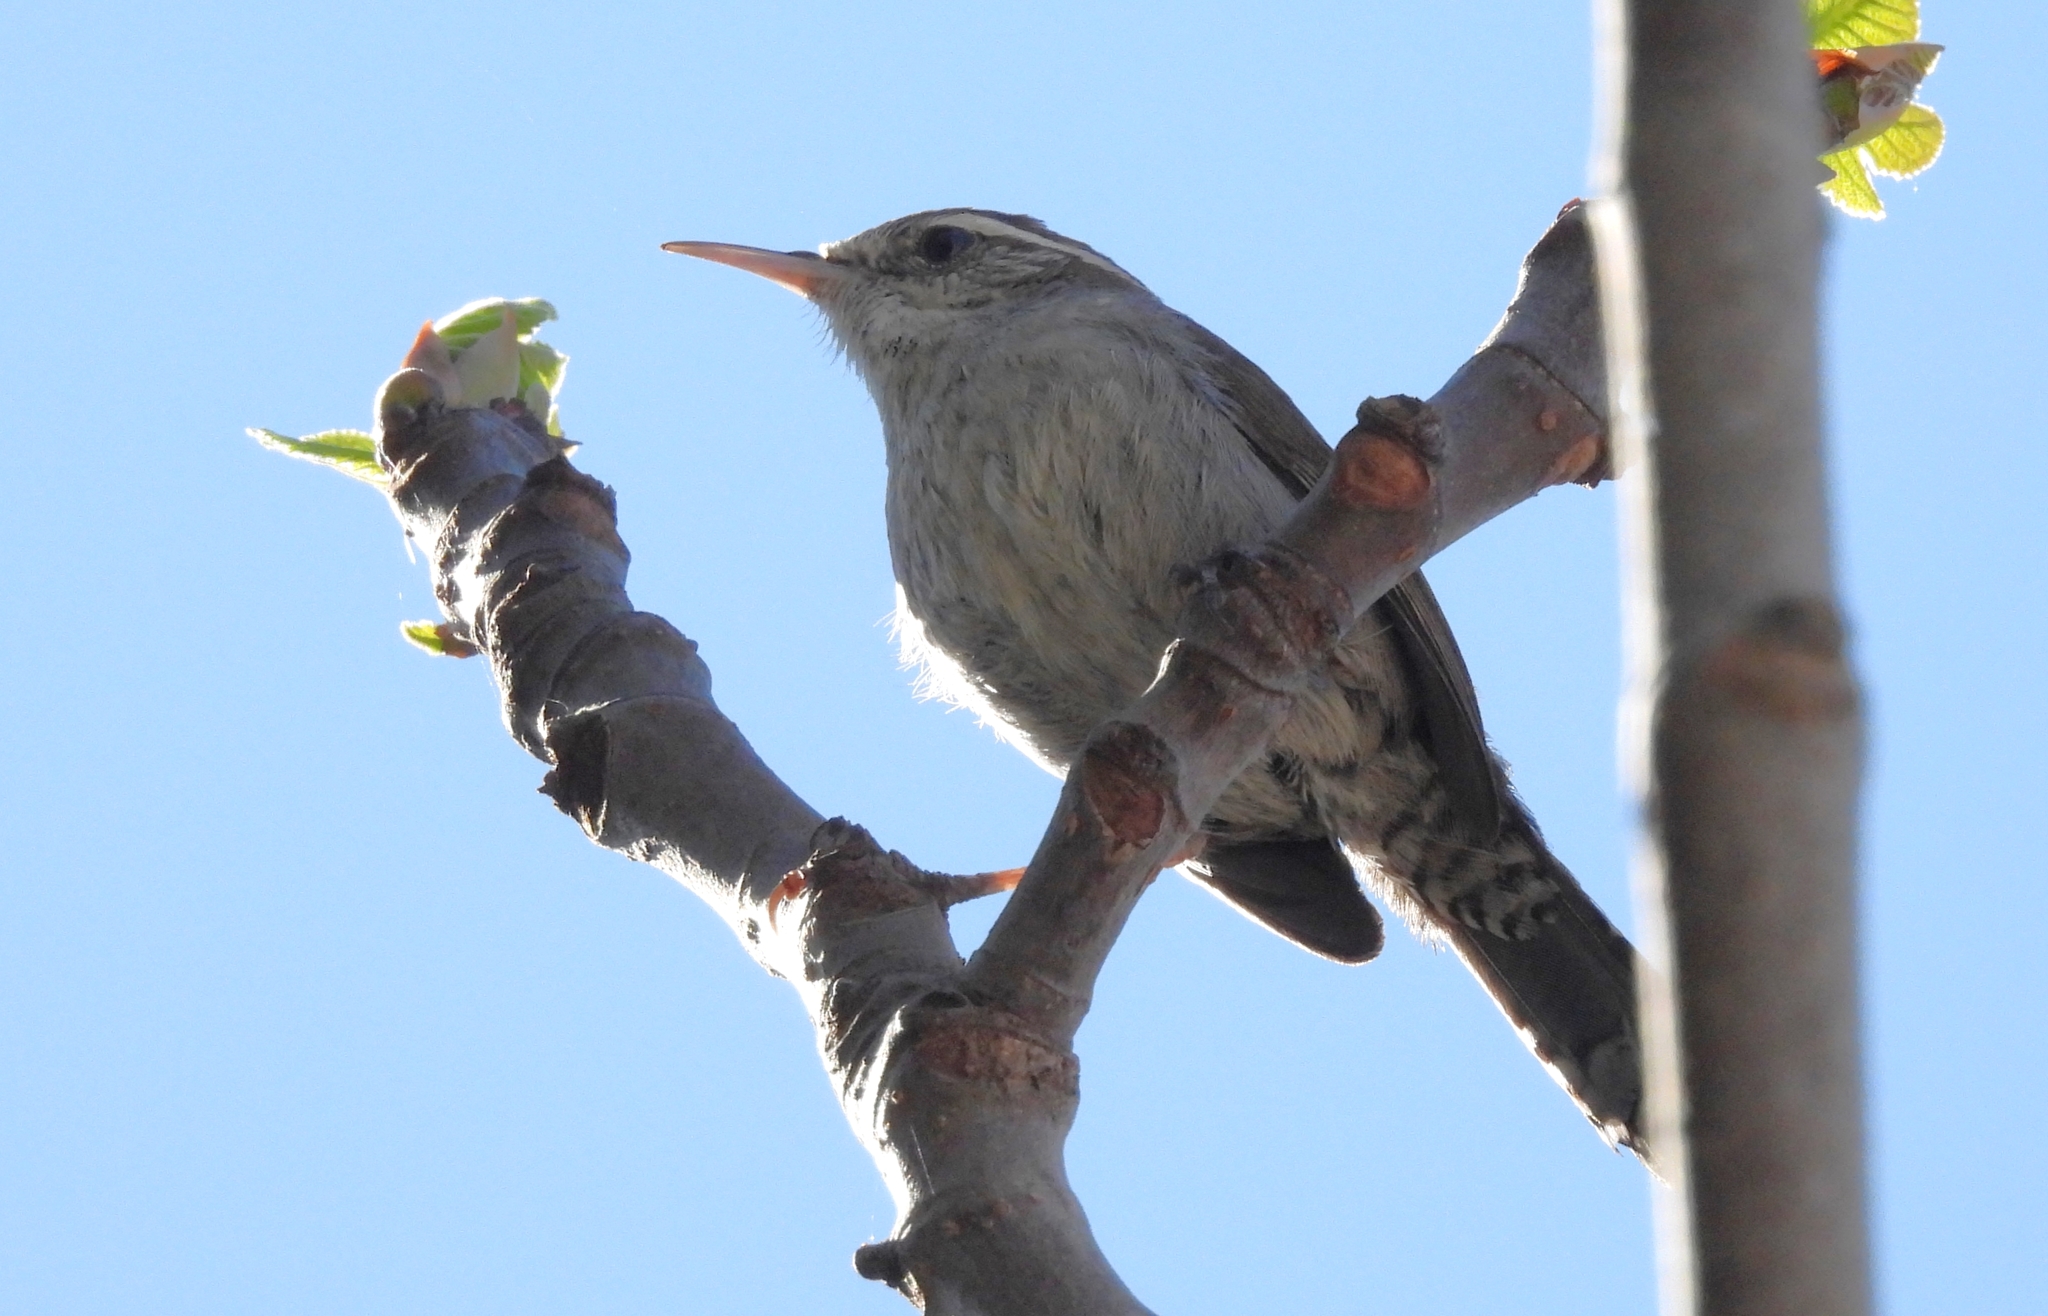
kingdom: Animalia
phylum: Chordata
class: Aves
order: Passeriformes
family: Troglodytidae
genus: Thryomanes
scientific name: Thryomanes bewickii
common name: Bewick's wren
